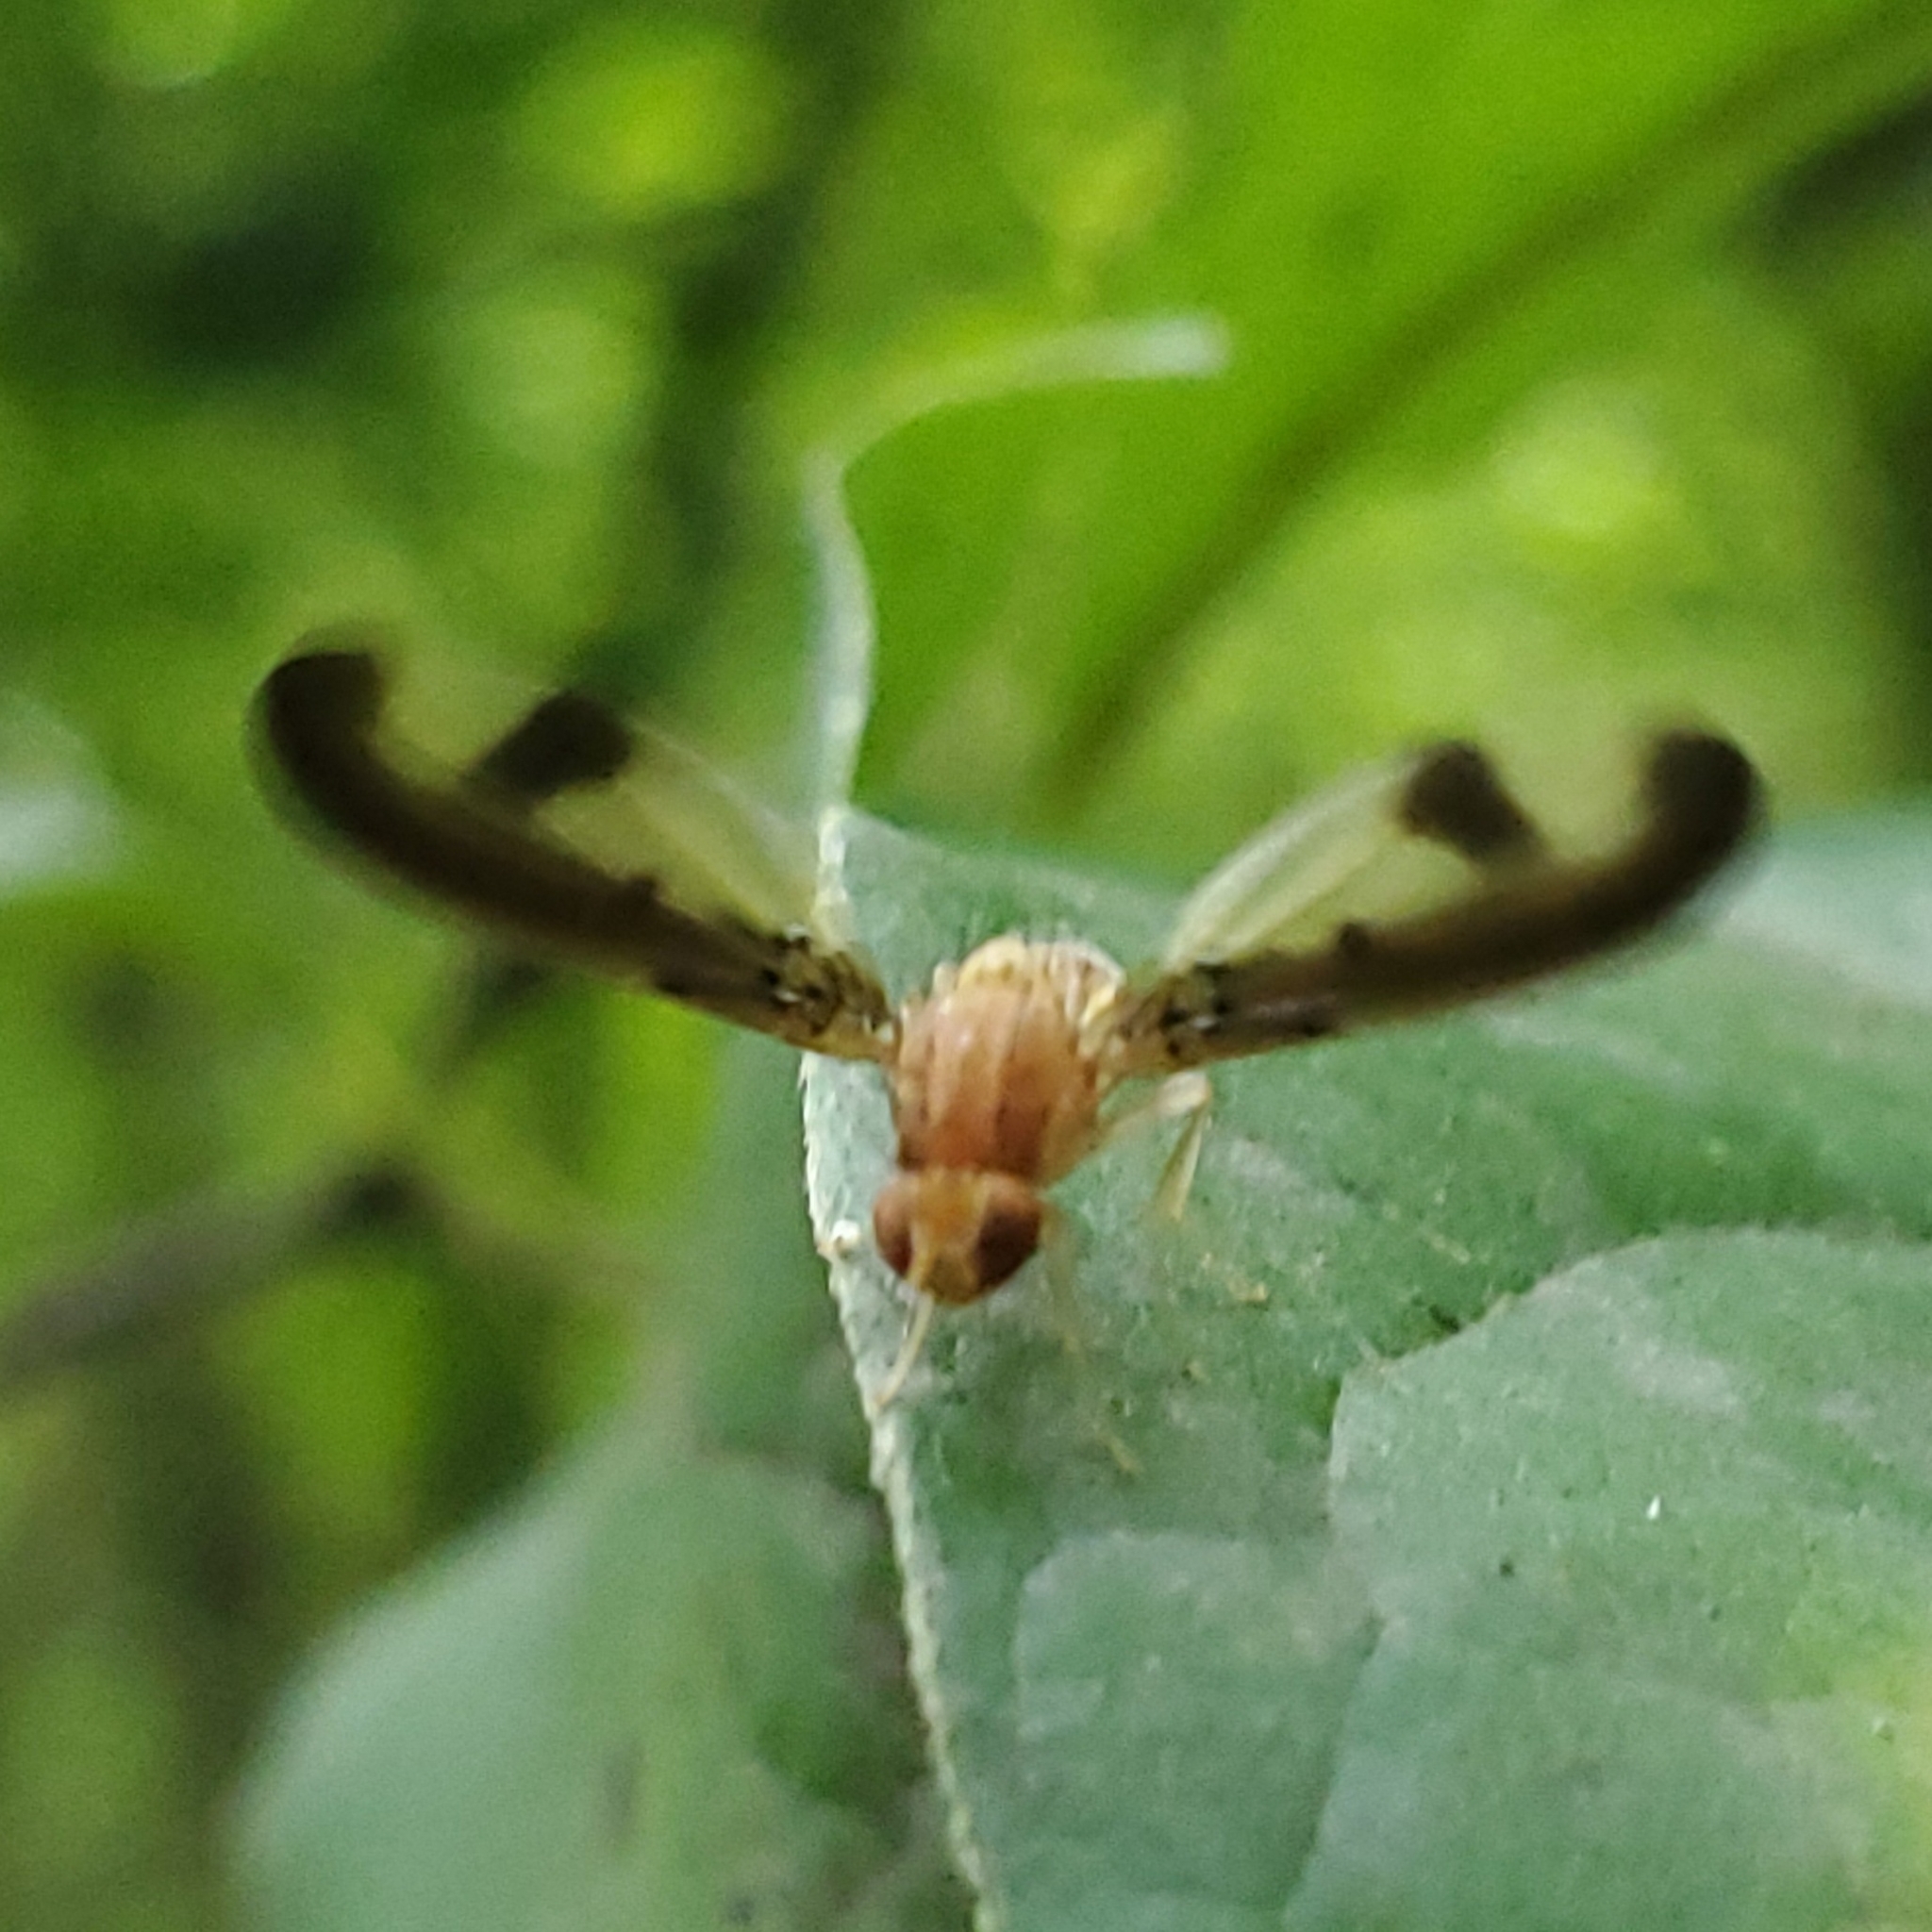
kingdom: Animalia
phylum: Arthropoda
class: Insecta
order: Diptera
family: Pallopteridae
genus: Toxonevra
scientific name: Toxonevra superba
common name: Antlered flutter fly
